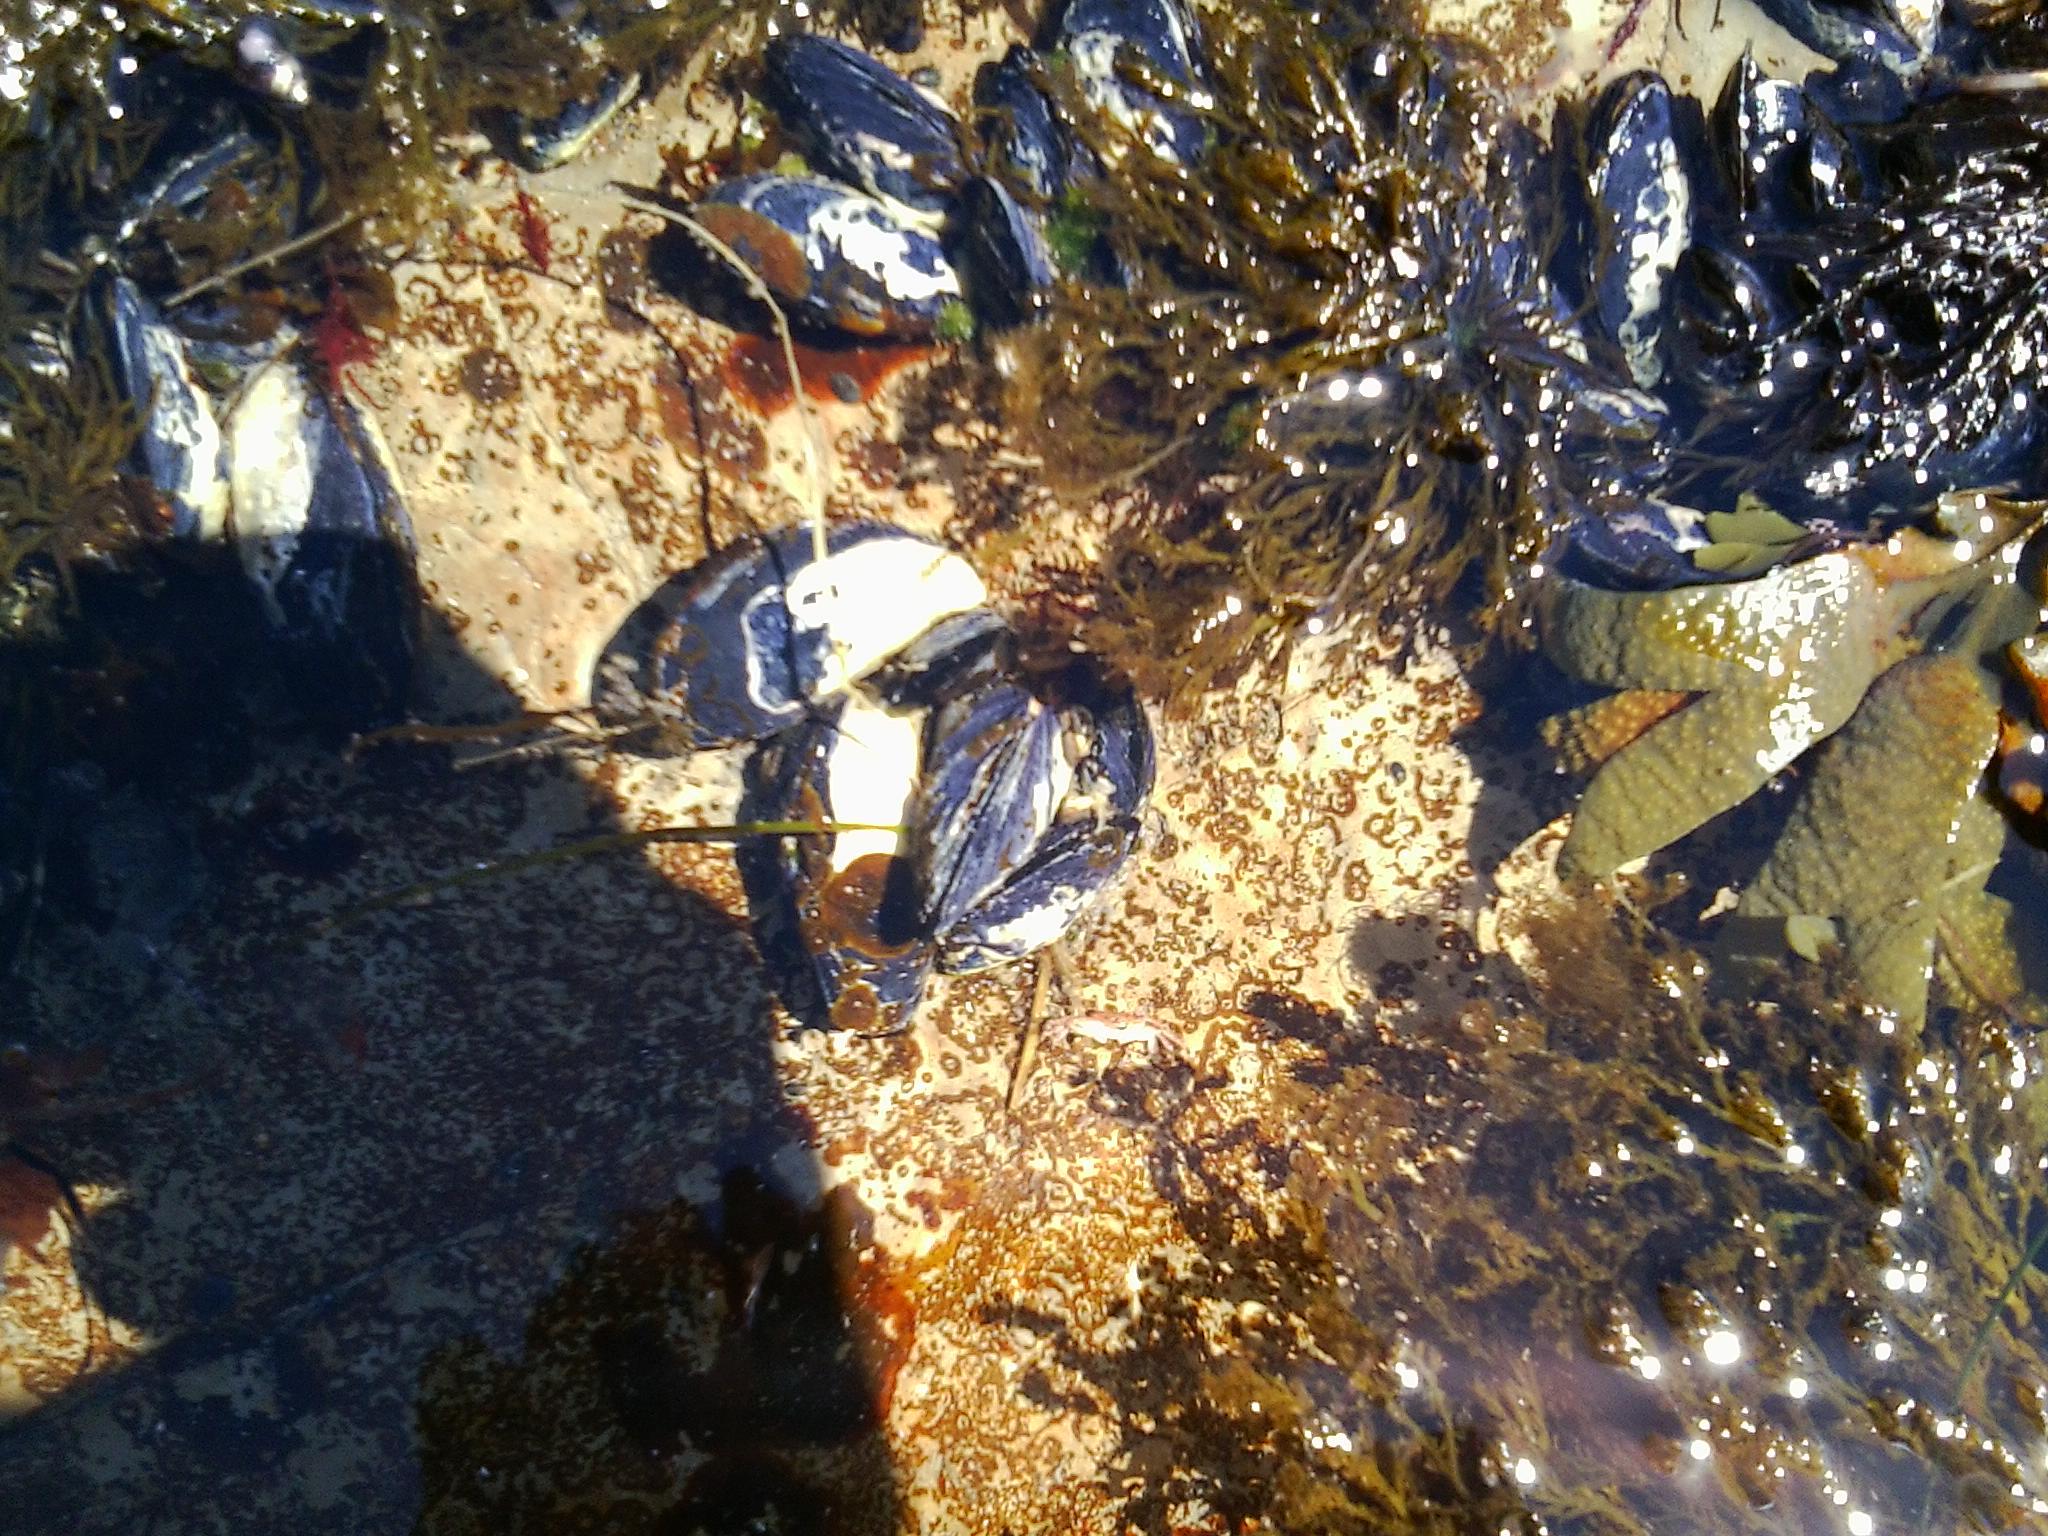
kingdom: Animalia
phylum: Mollusca
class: Bivalvia
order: Mytilida
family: Mytilidae
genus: Mytilus
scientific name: Mytilus californianus
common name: California mussel
